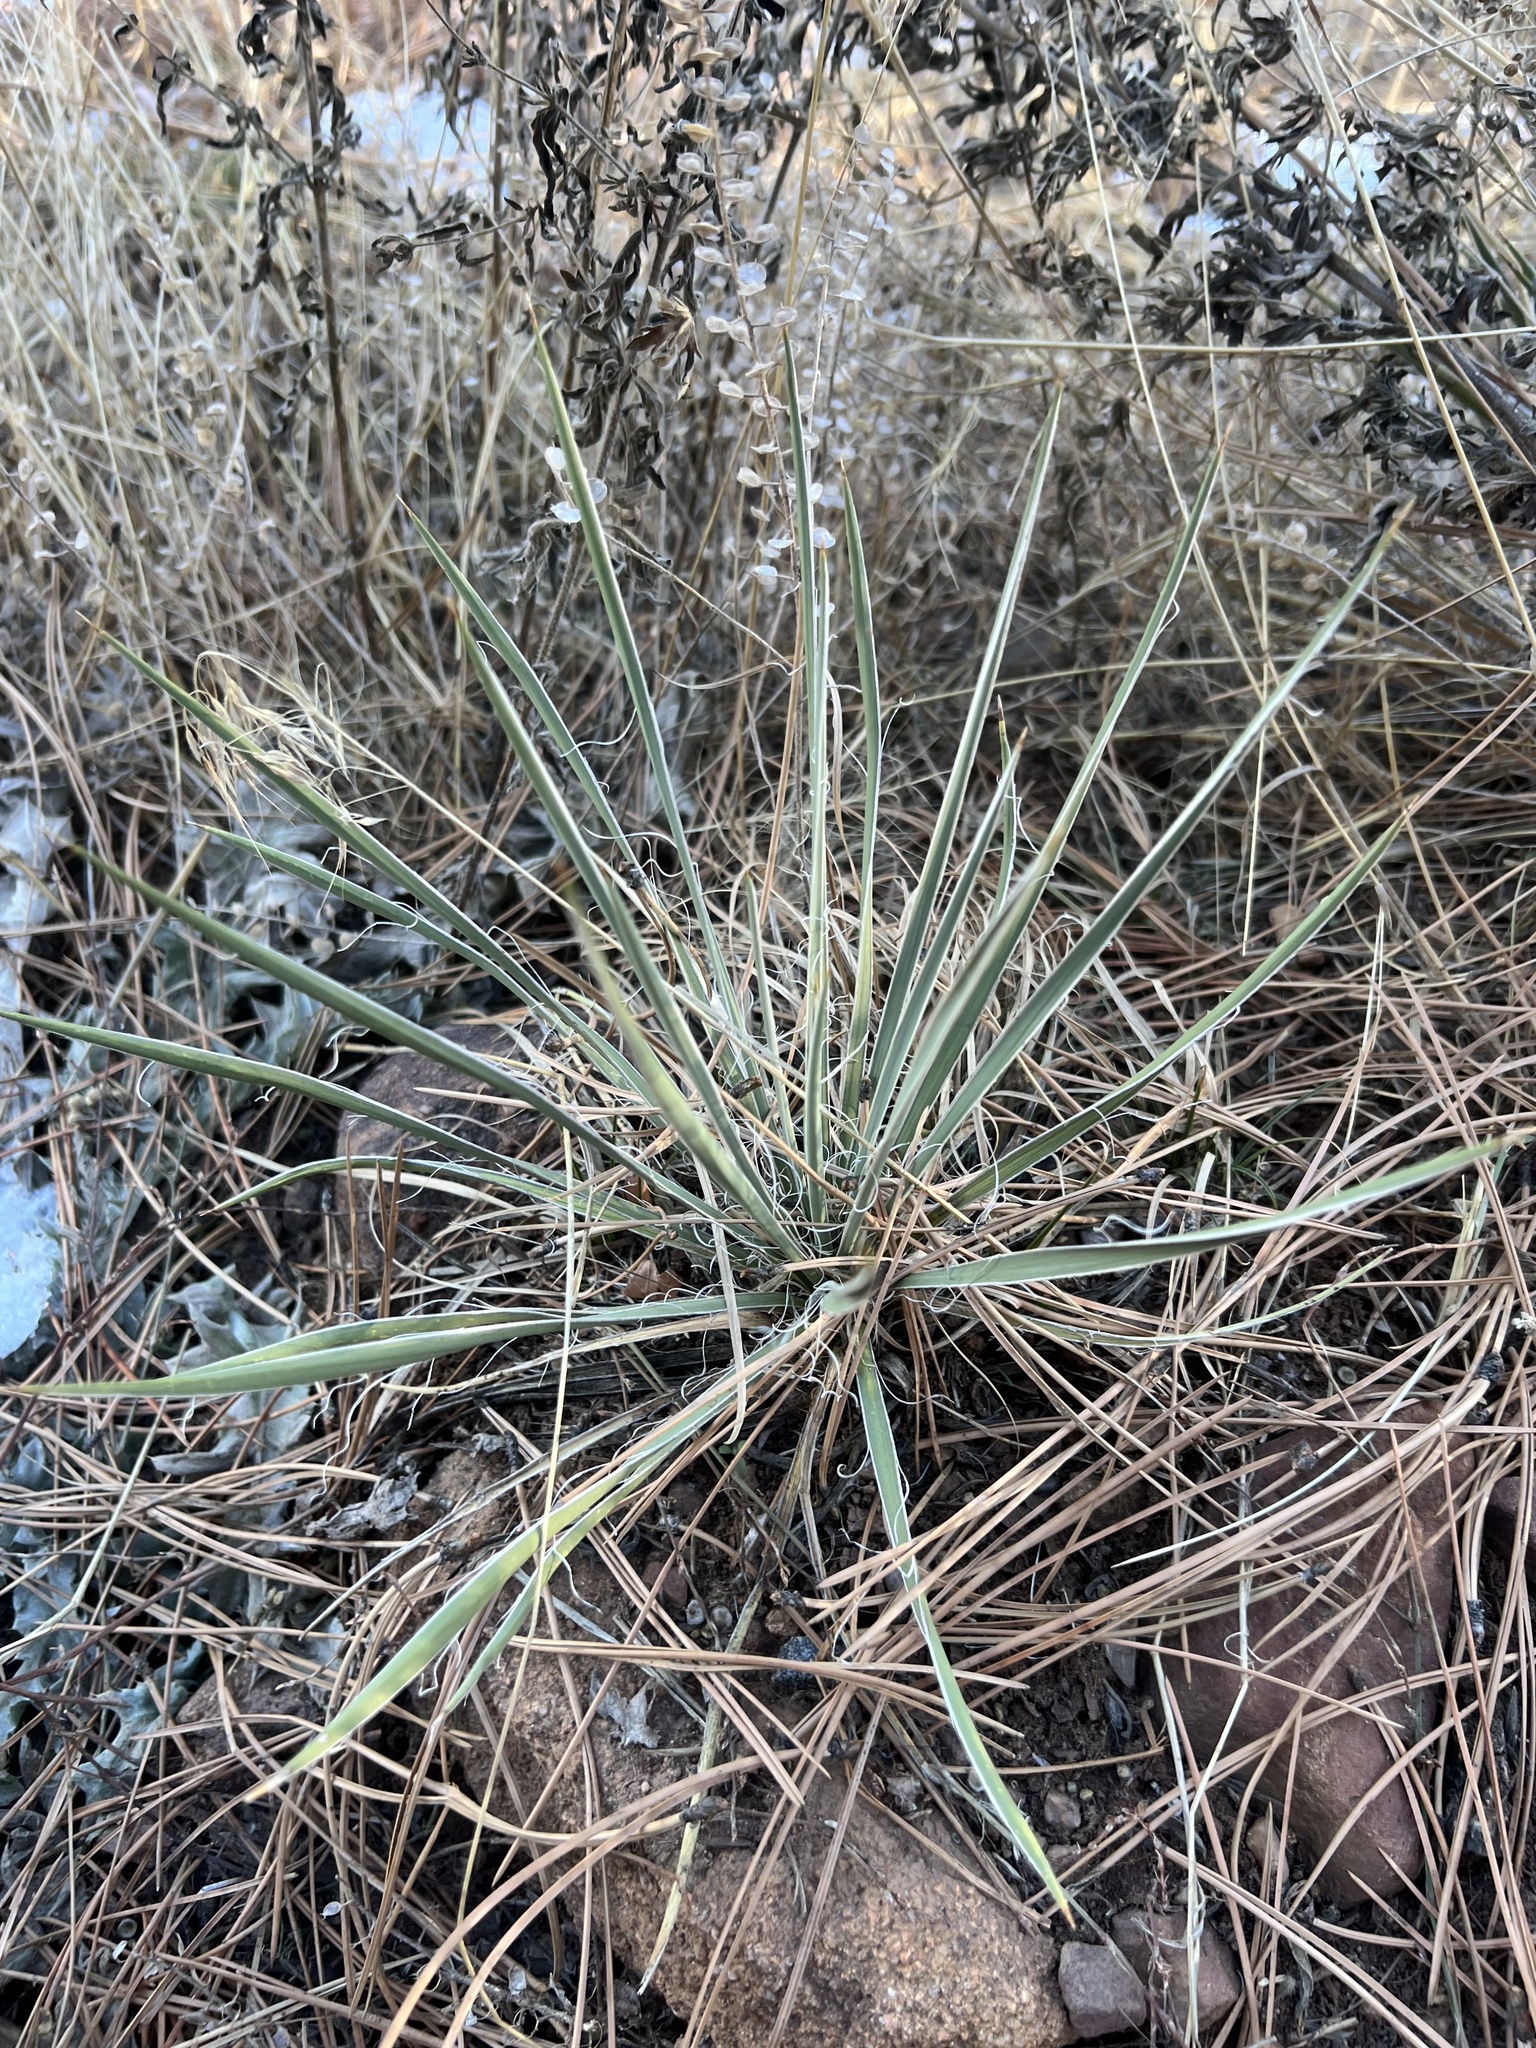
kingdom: Plantae
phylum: Tracheophyta
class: Liliopsida
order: Asparagales
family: Asparagaceae
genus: Yucca
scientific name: Yucca glauca
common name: Great plains yucca
